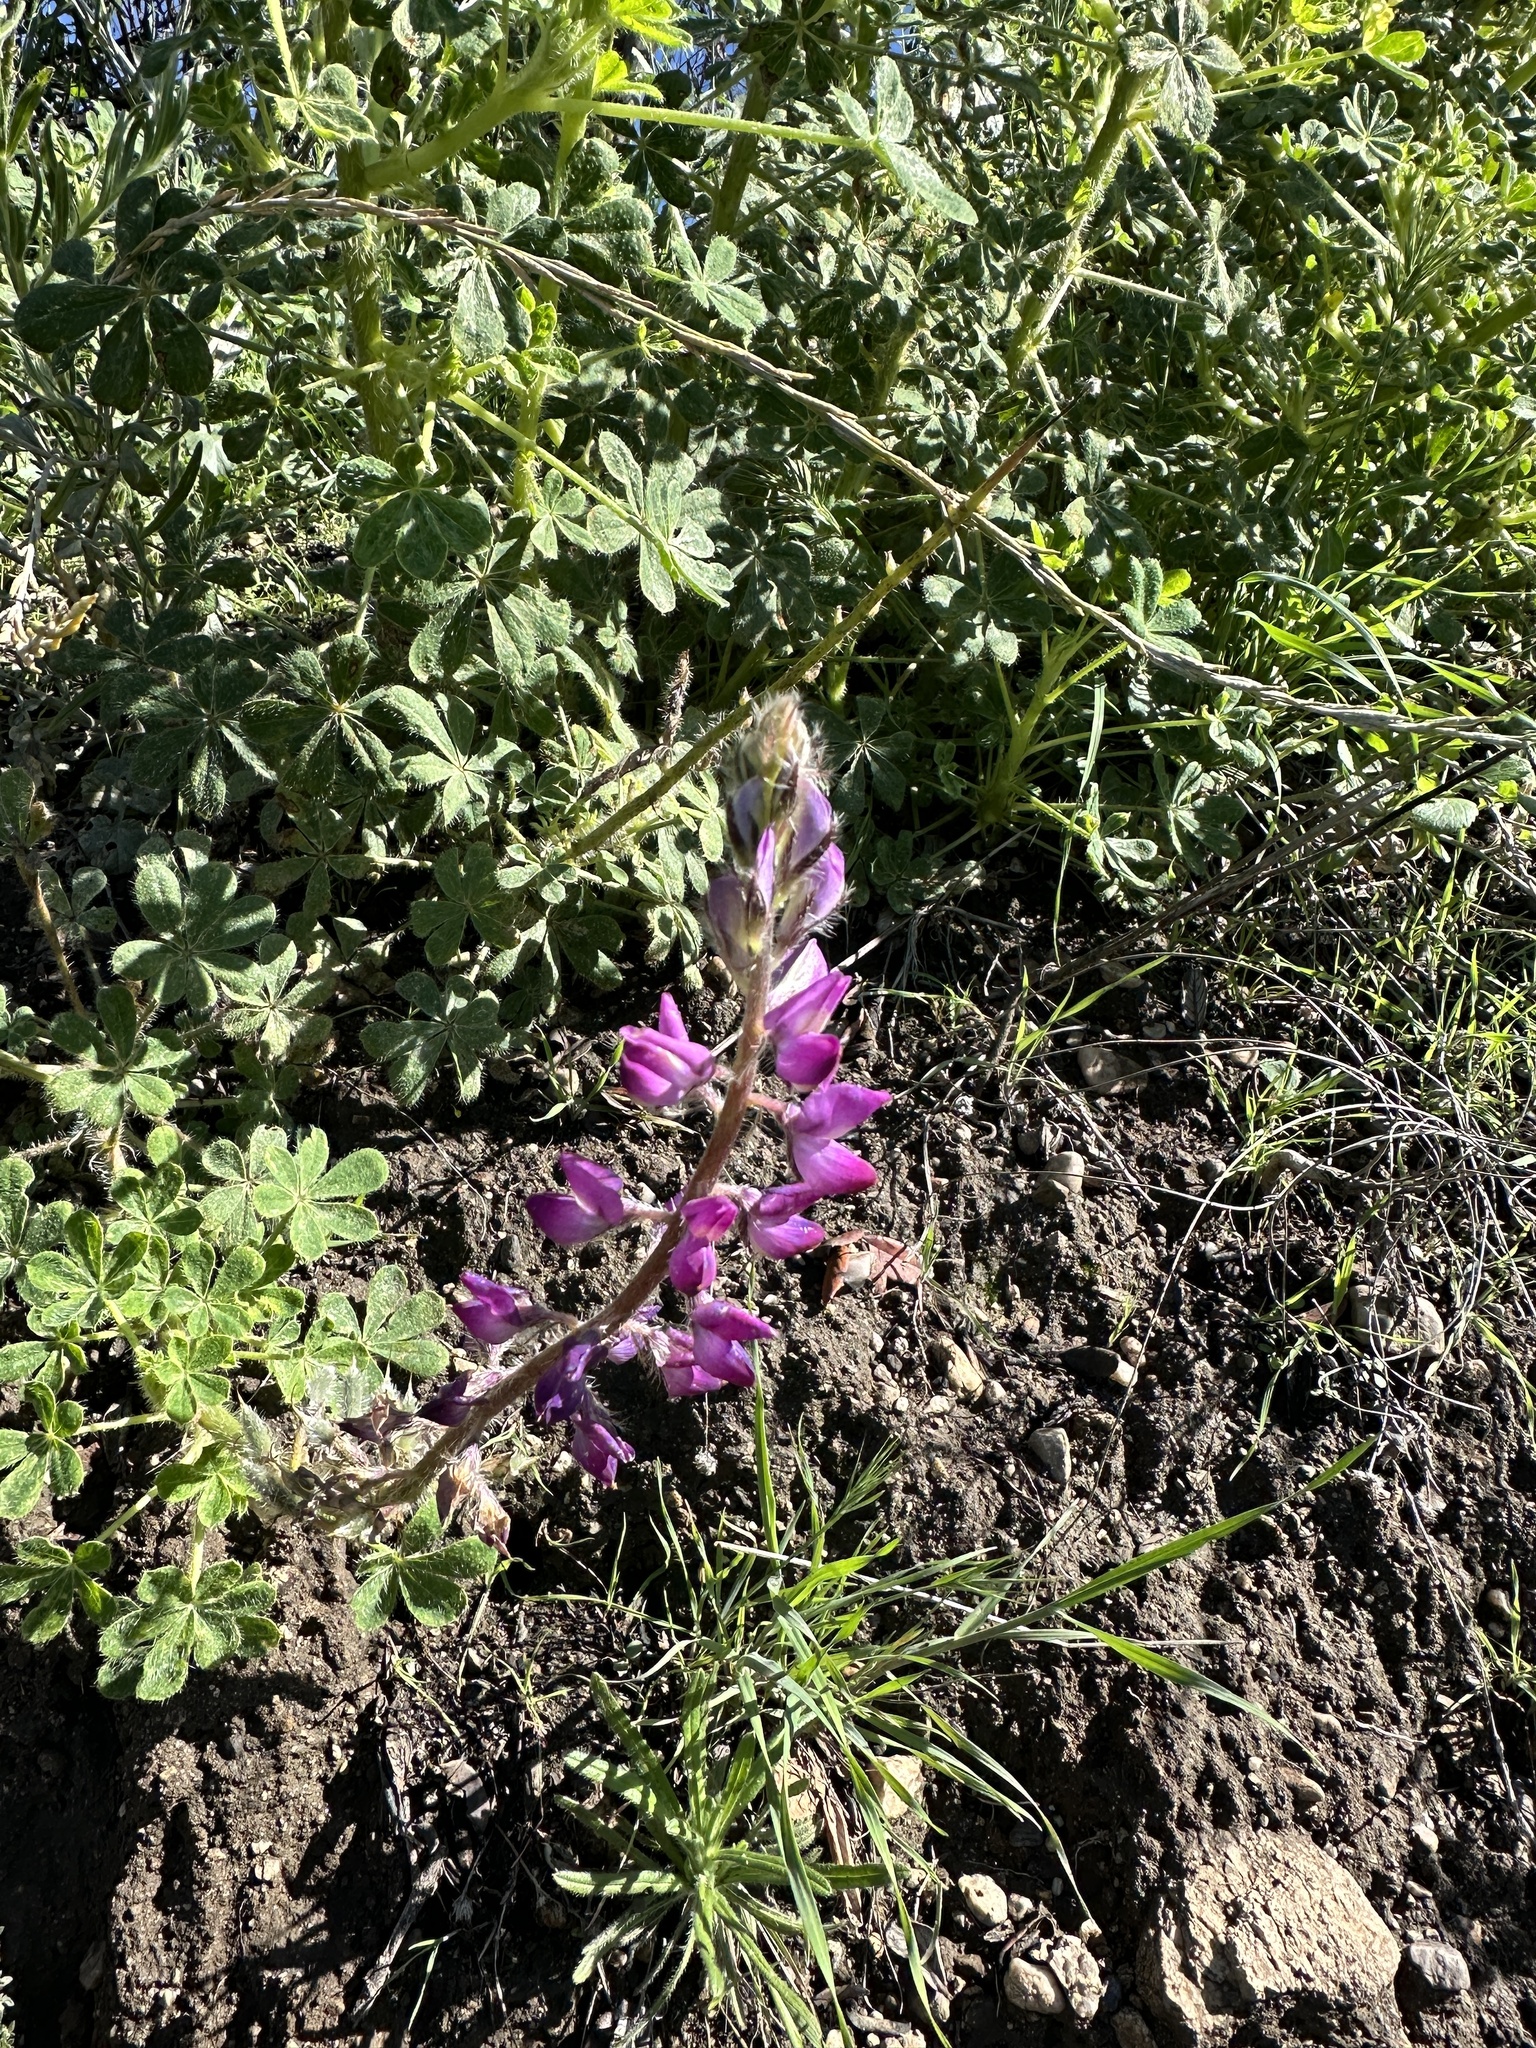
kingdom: Plantae
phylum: Tracheophyta
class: Magnoliopsida
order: Fabales
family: Fabaceae
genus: Lupinus
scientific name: Lupinus hirsutissimus
